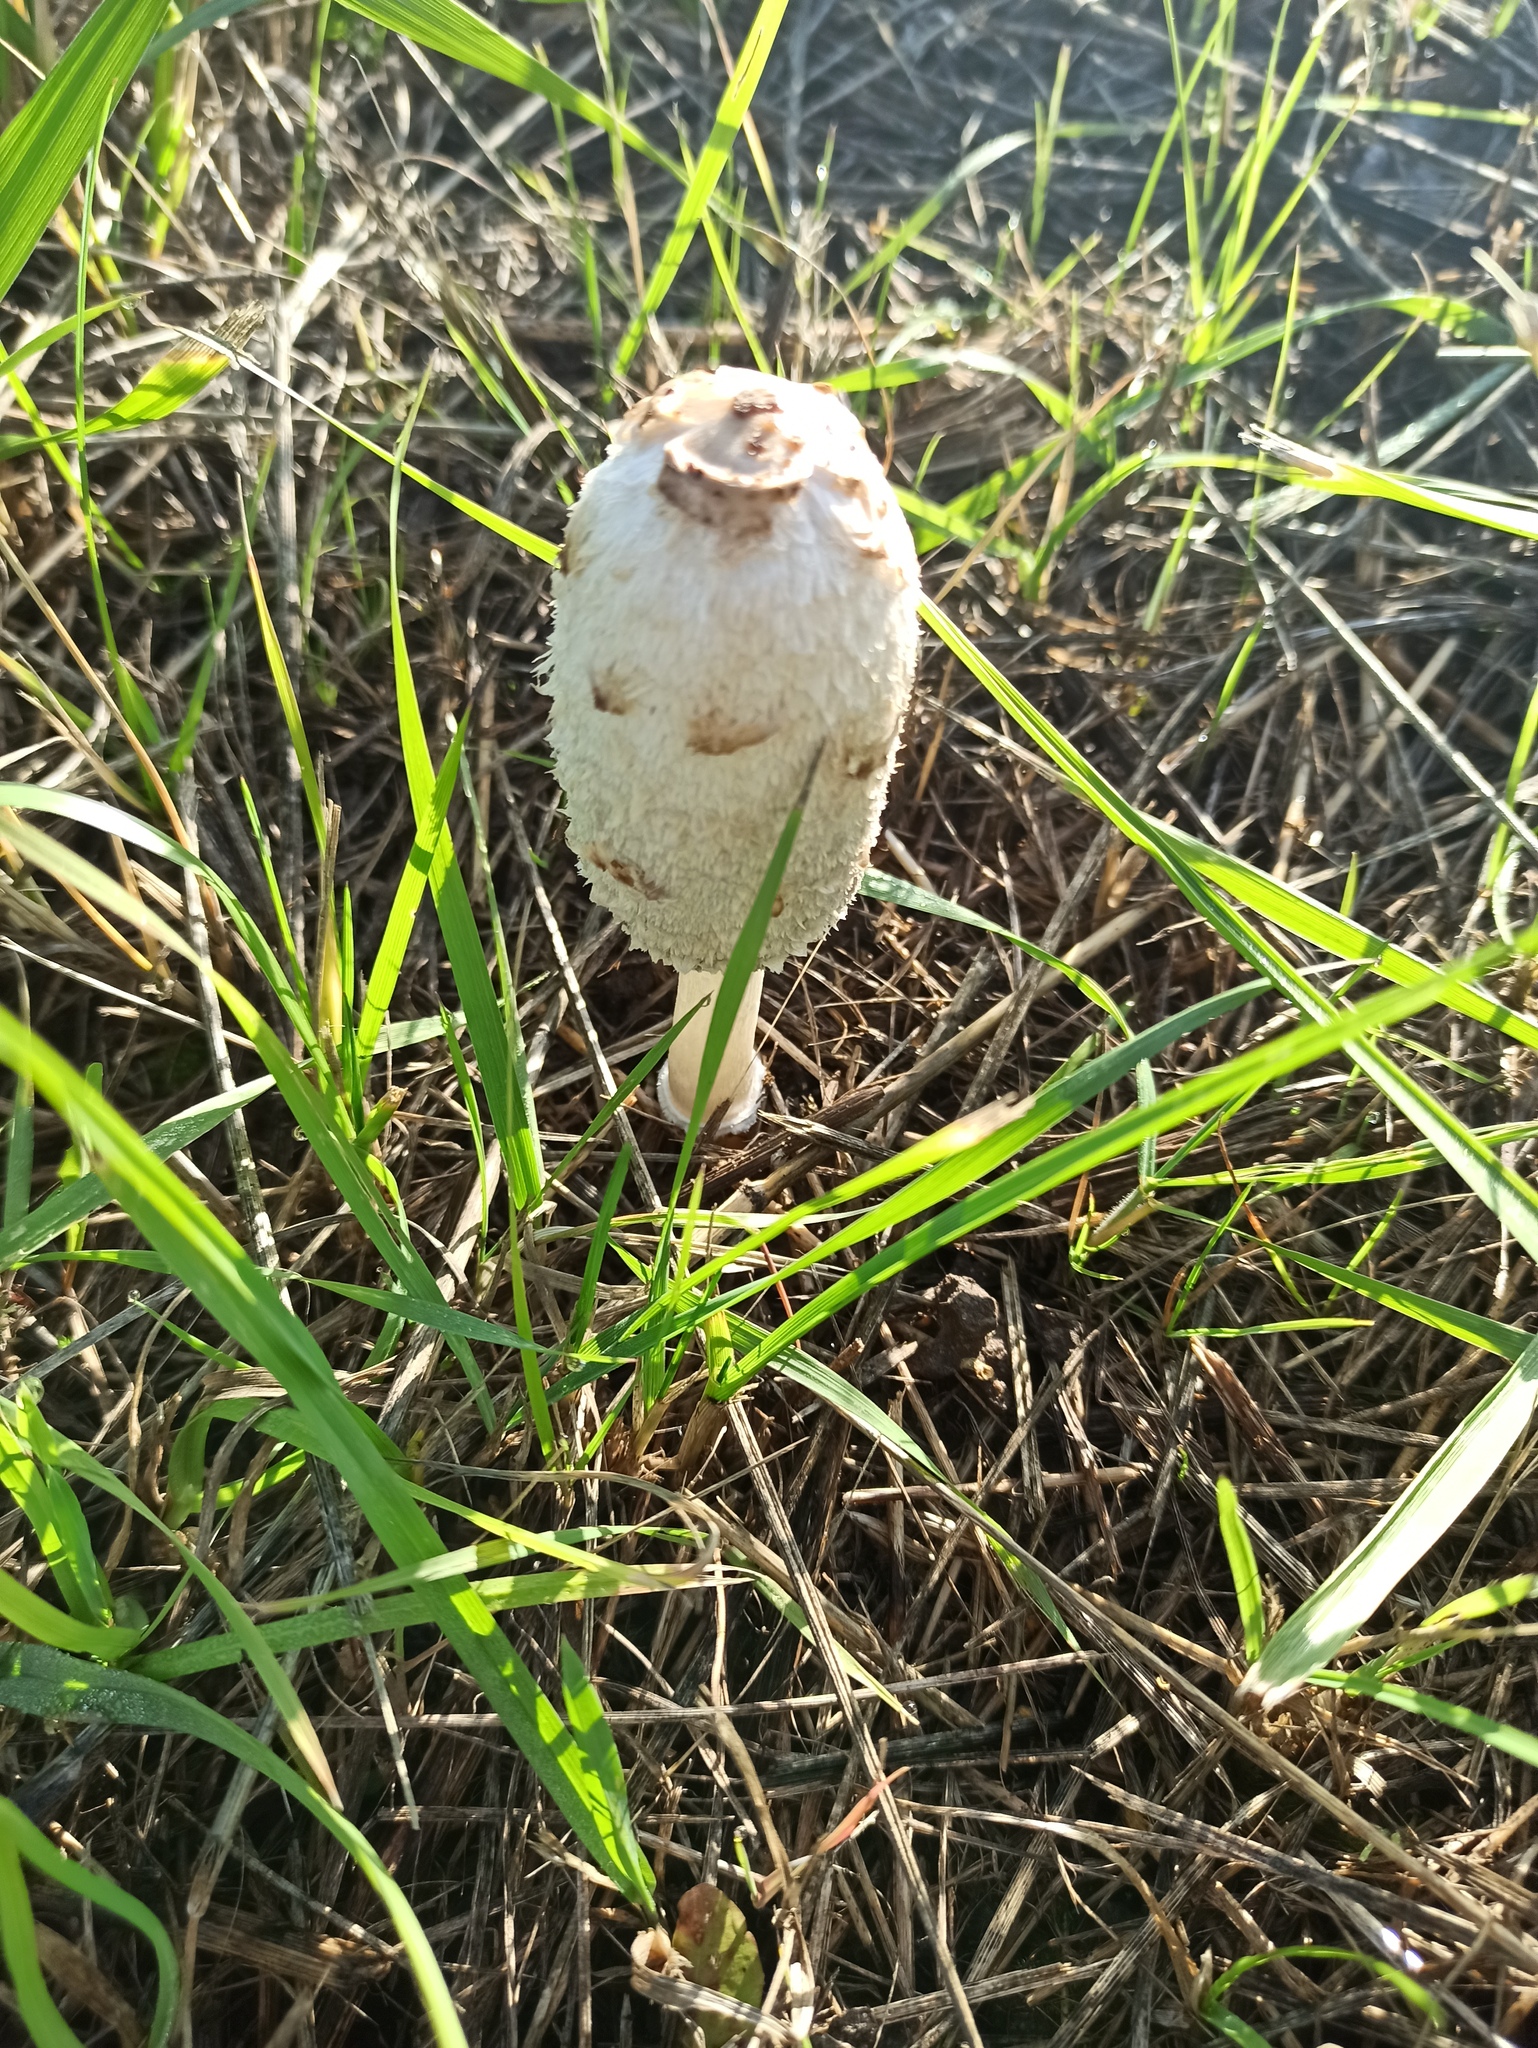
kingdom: Fungi
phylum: Basidiomycota
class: Agaricomycetes
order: Agaricales
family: Agaricaceae
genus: Coprinus
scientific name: Coprinus comatus
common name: Lawyer's wig
